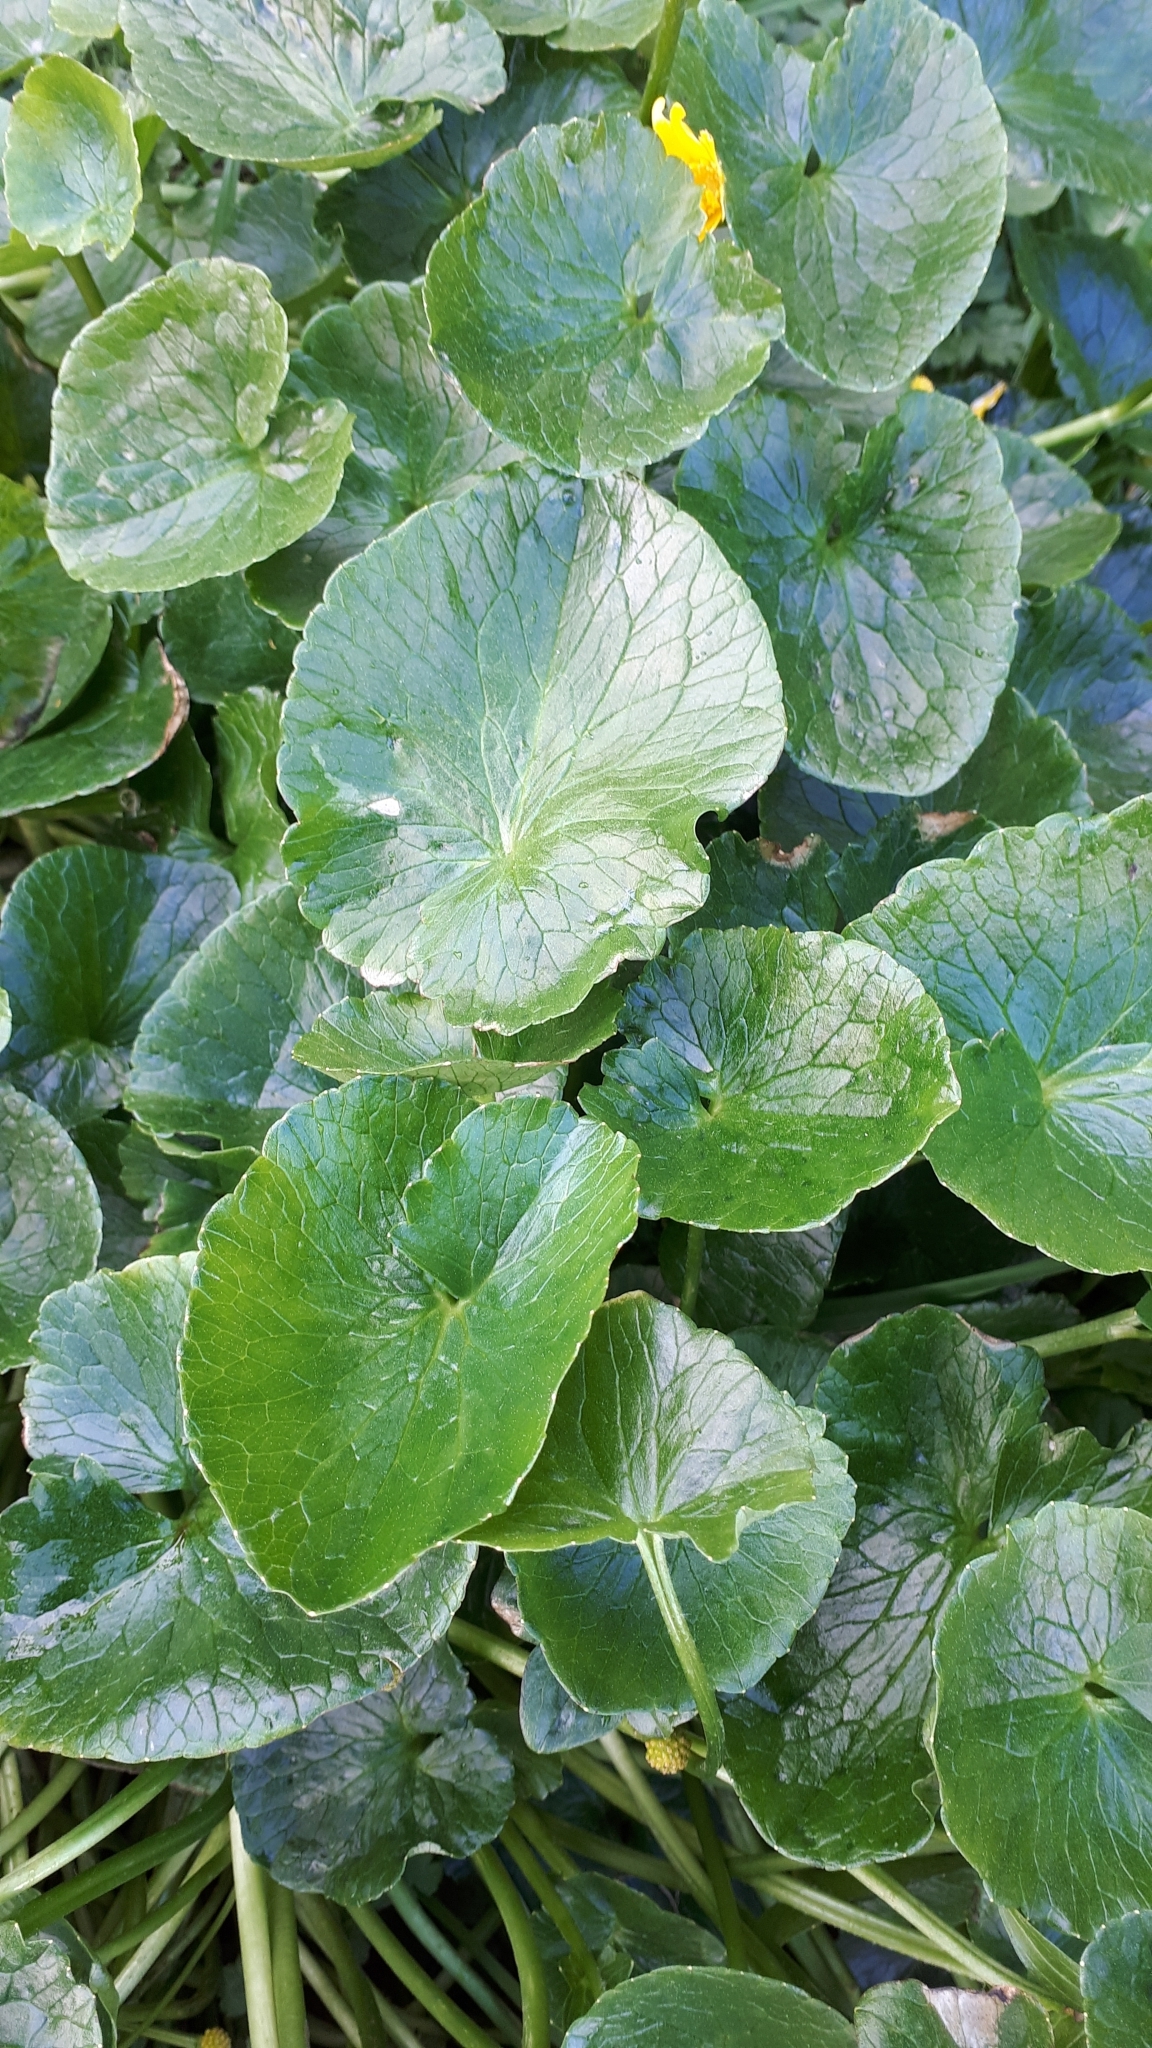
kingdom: Plantae
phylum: Tracheophyta
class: Magnoliopsida
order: Ranunculales
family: Ranunculaceae
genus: Ficaria
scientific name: Ficaria verna
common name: Lesser celandine
